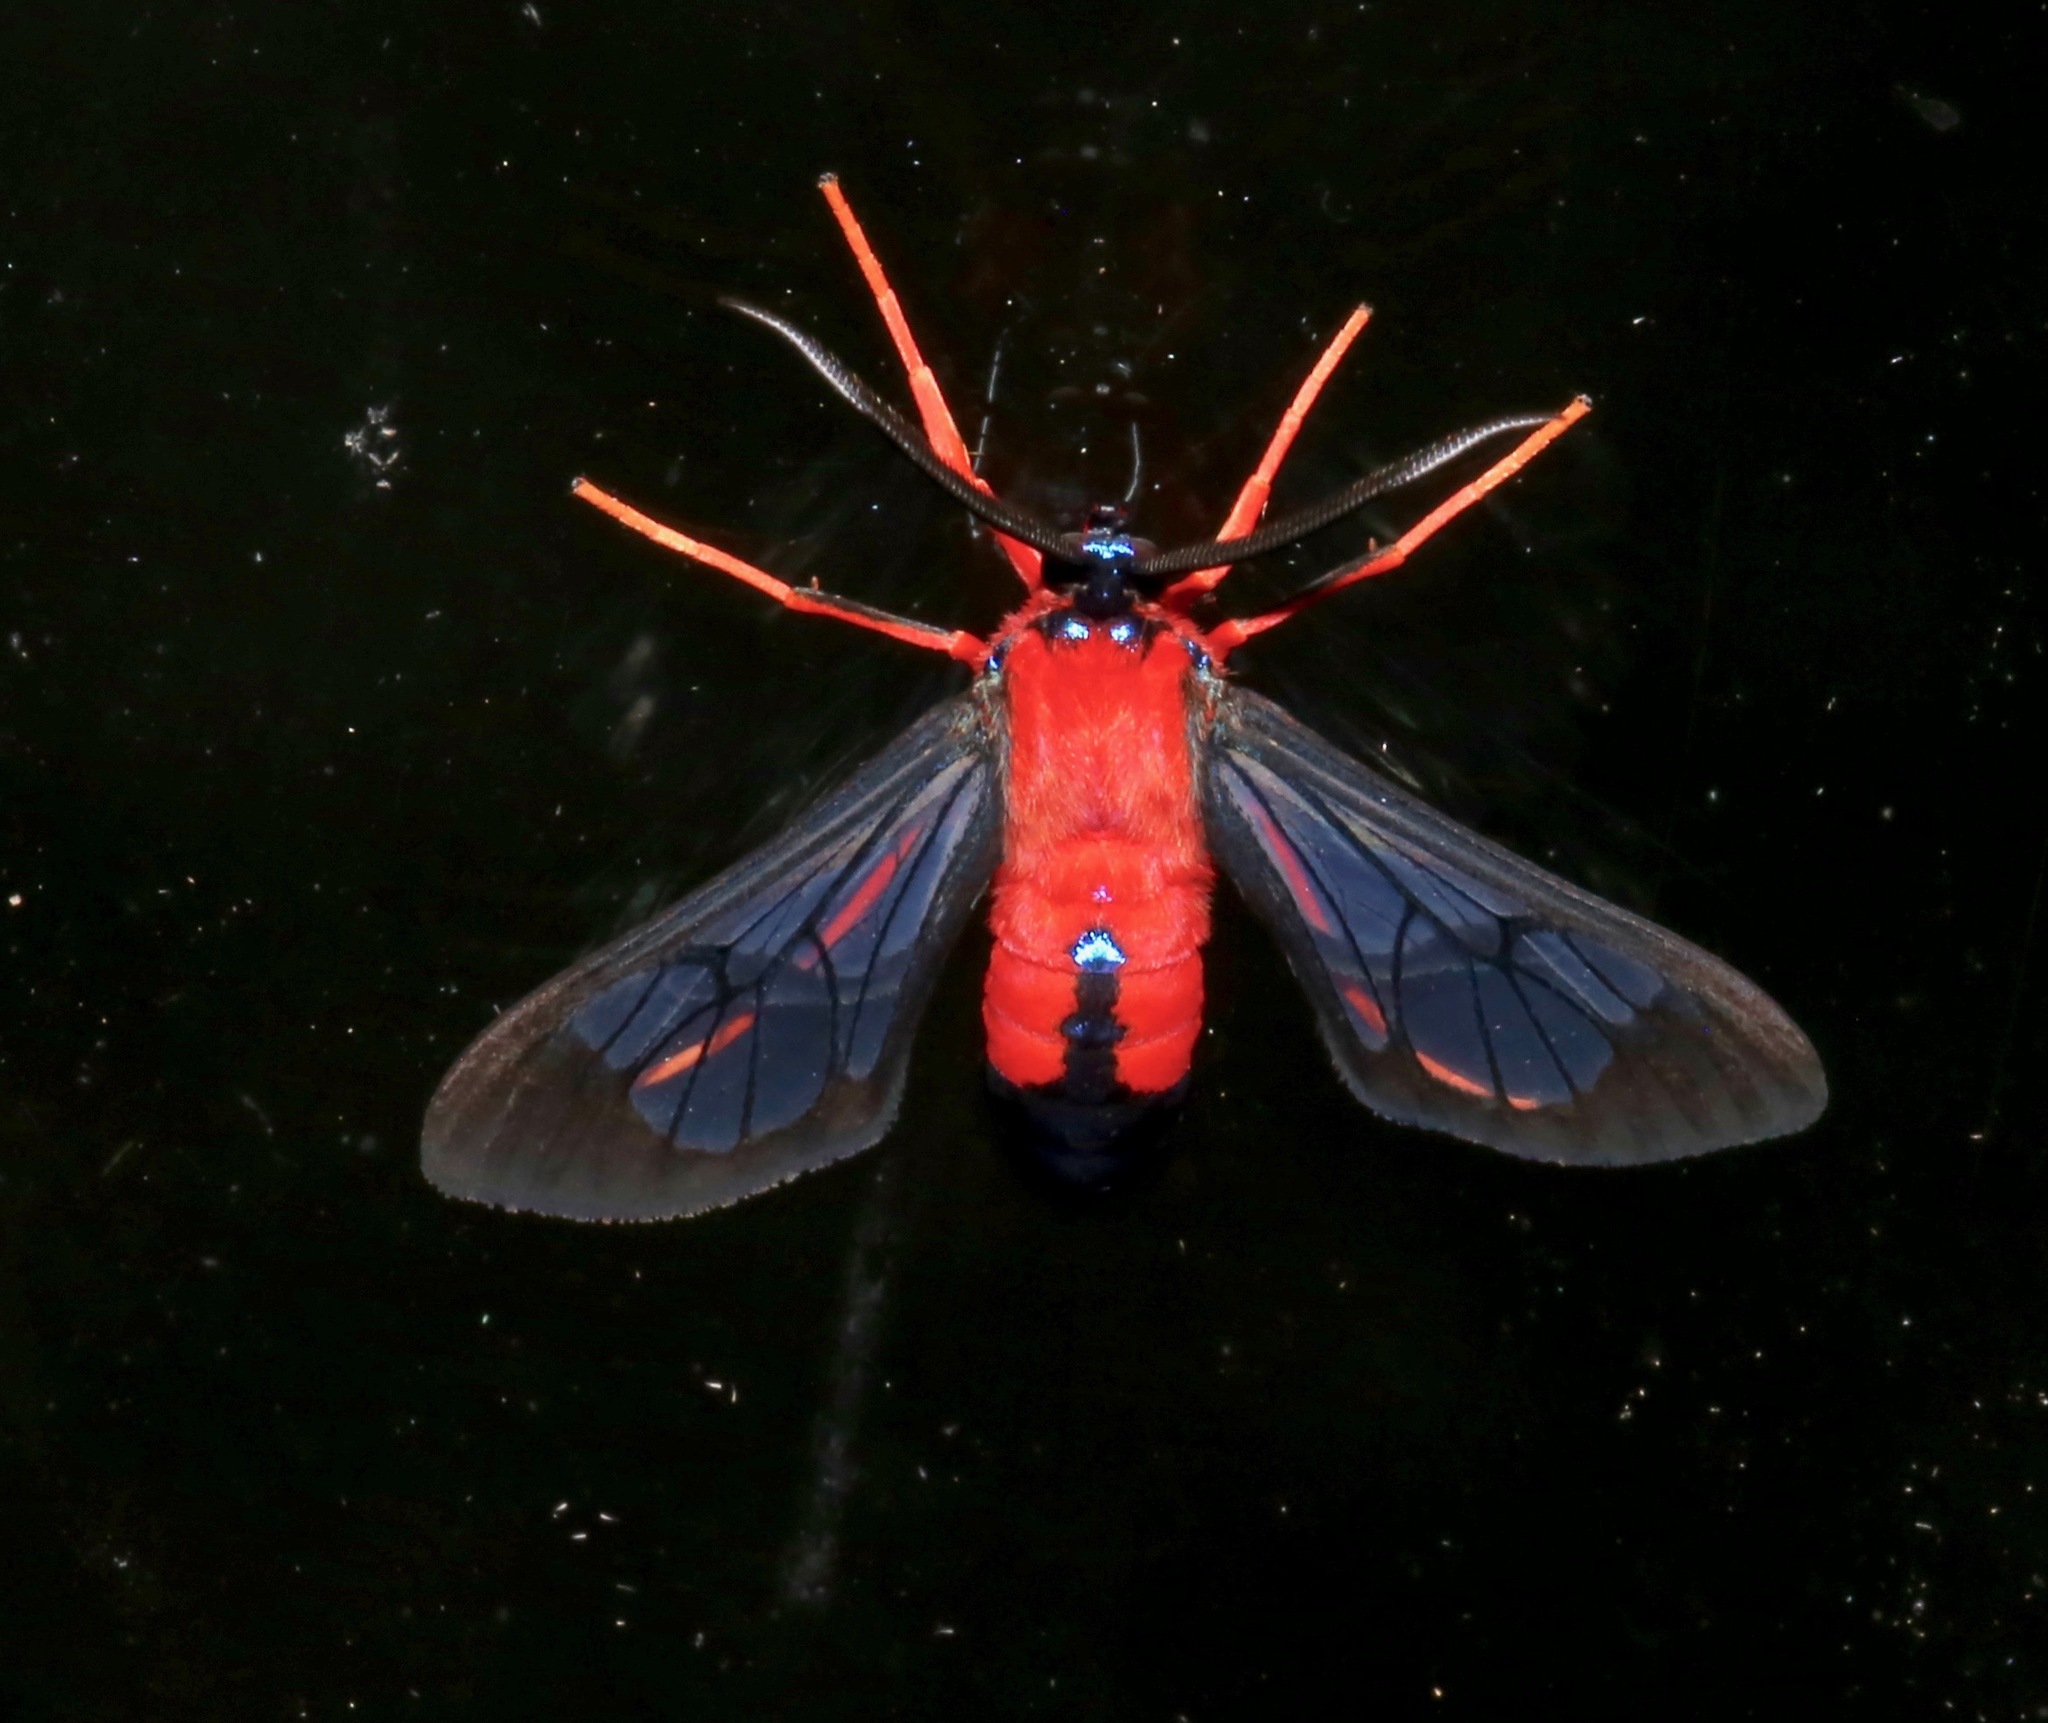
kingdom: Animalia
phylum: Arthropoda
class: Insecta
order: Lepidoptera
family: Erebidae
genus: Cosmosoma
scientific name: Cosmosoma myrodora
